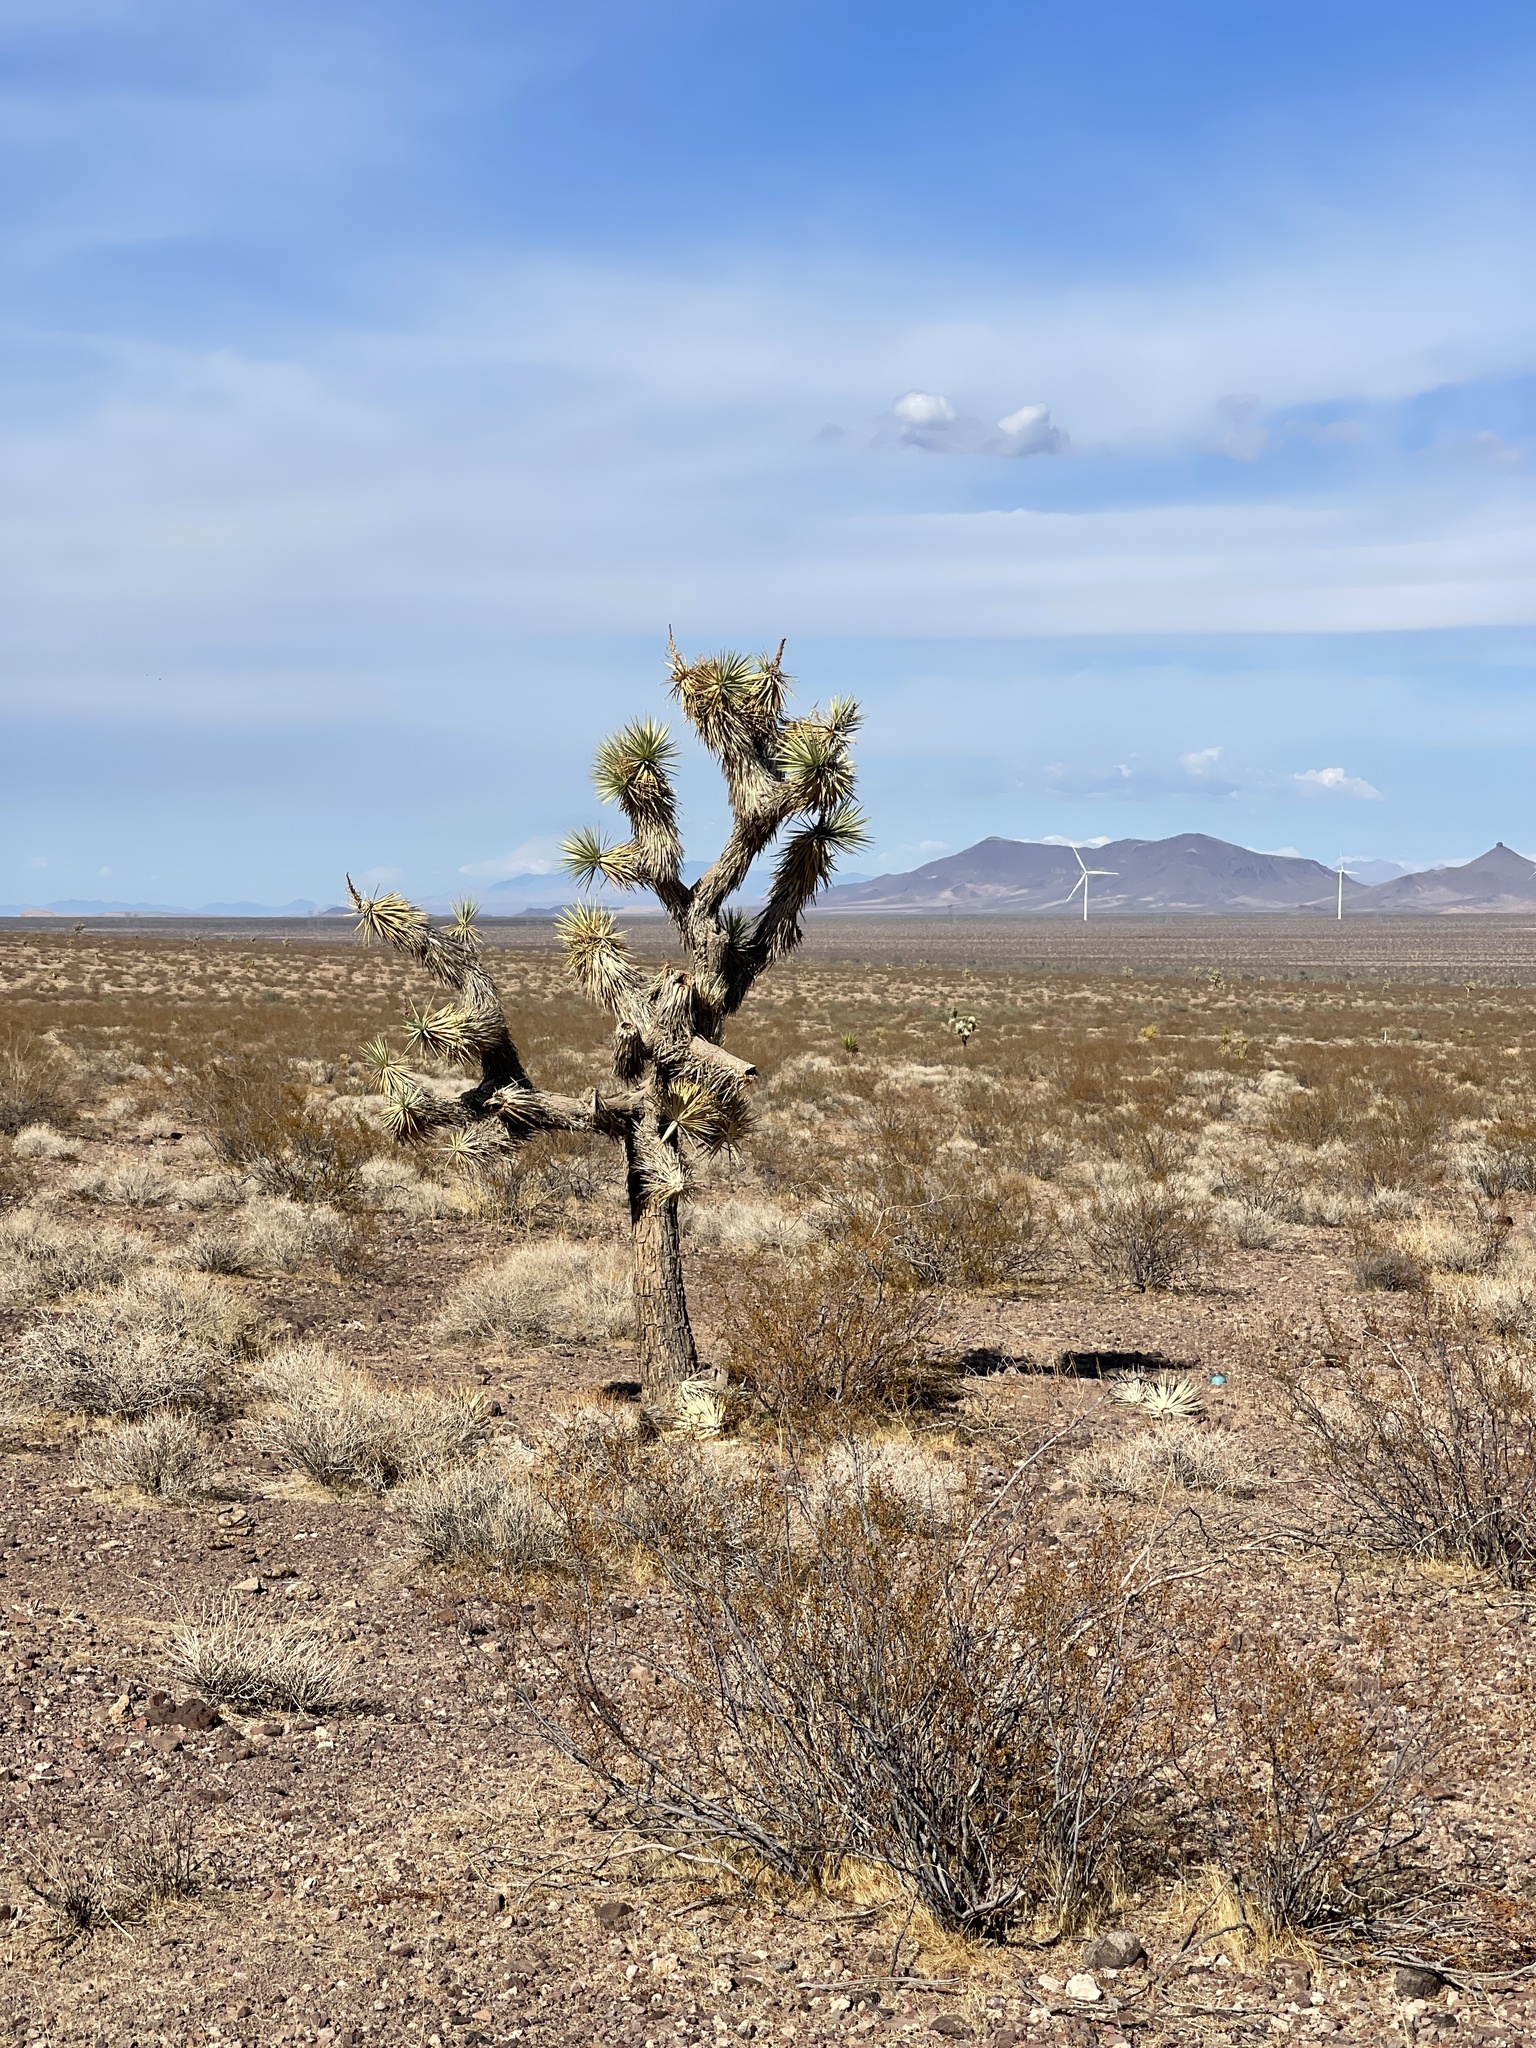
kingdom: Plantae
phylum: Tracheophyta
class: Liliopsida
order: Asparagales
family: Asparagaceae
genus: Yucca
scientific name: Yucca brevifolia
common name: Joshua tree
